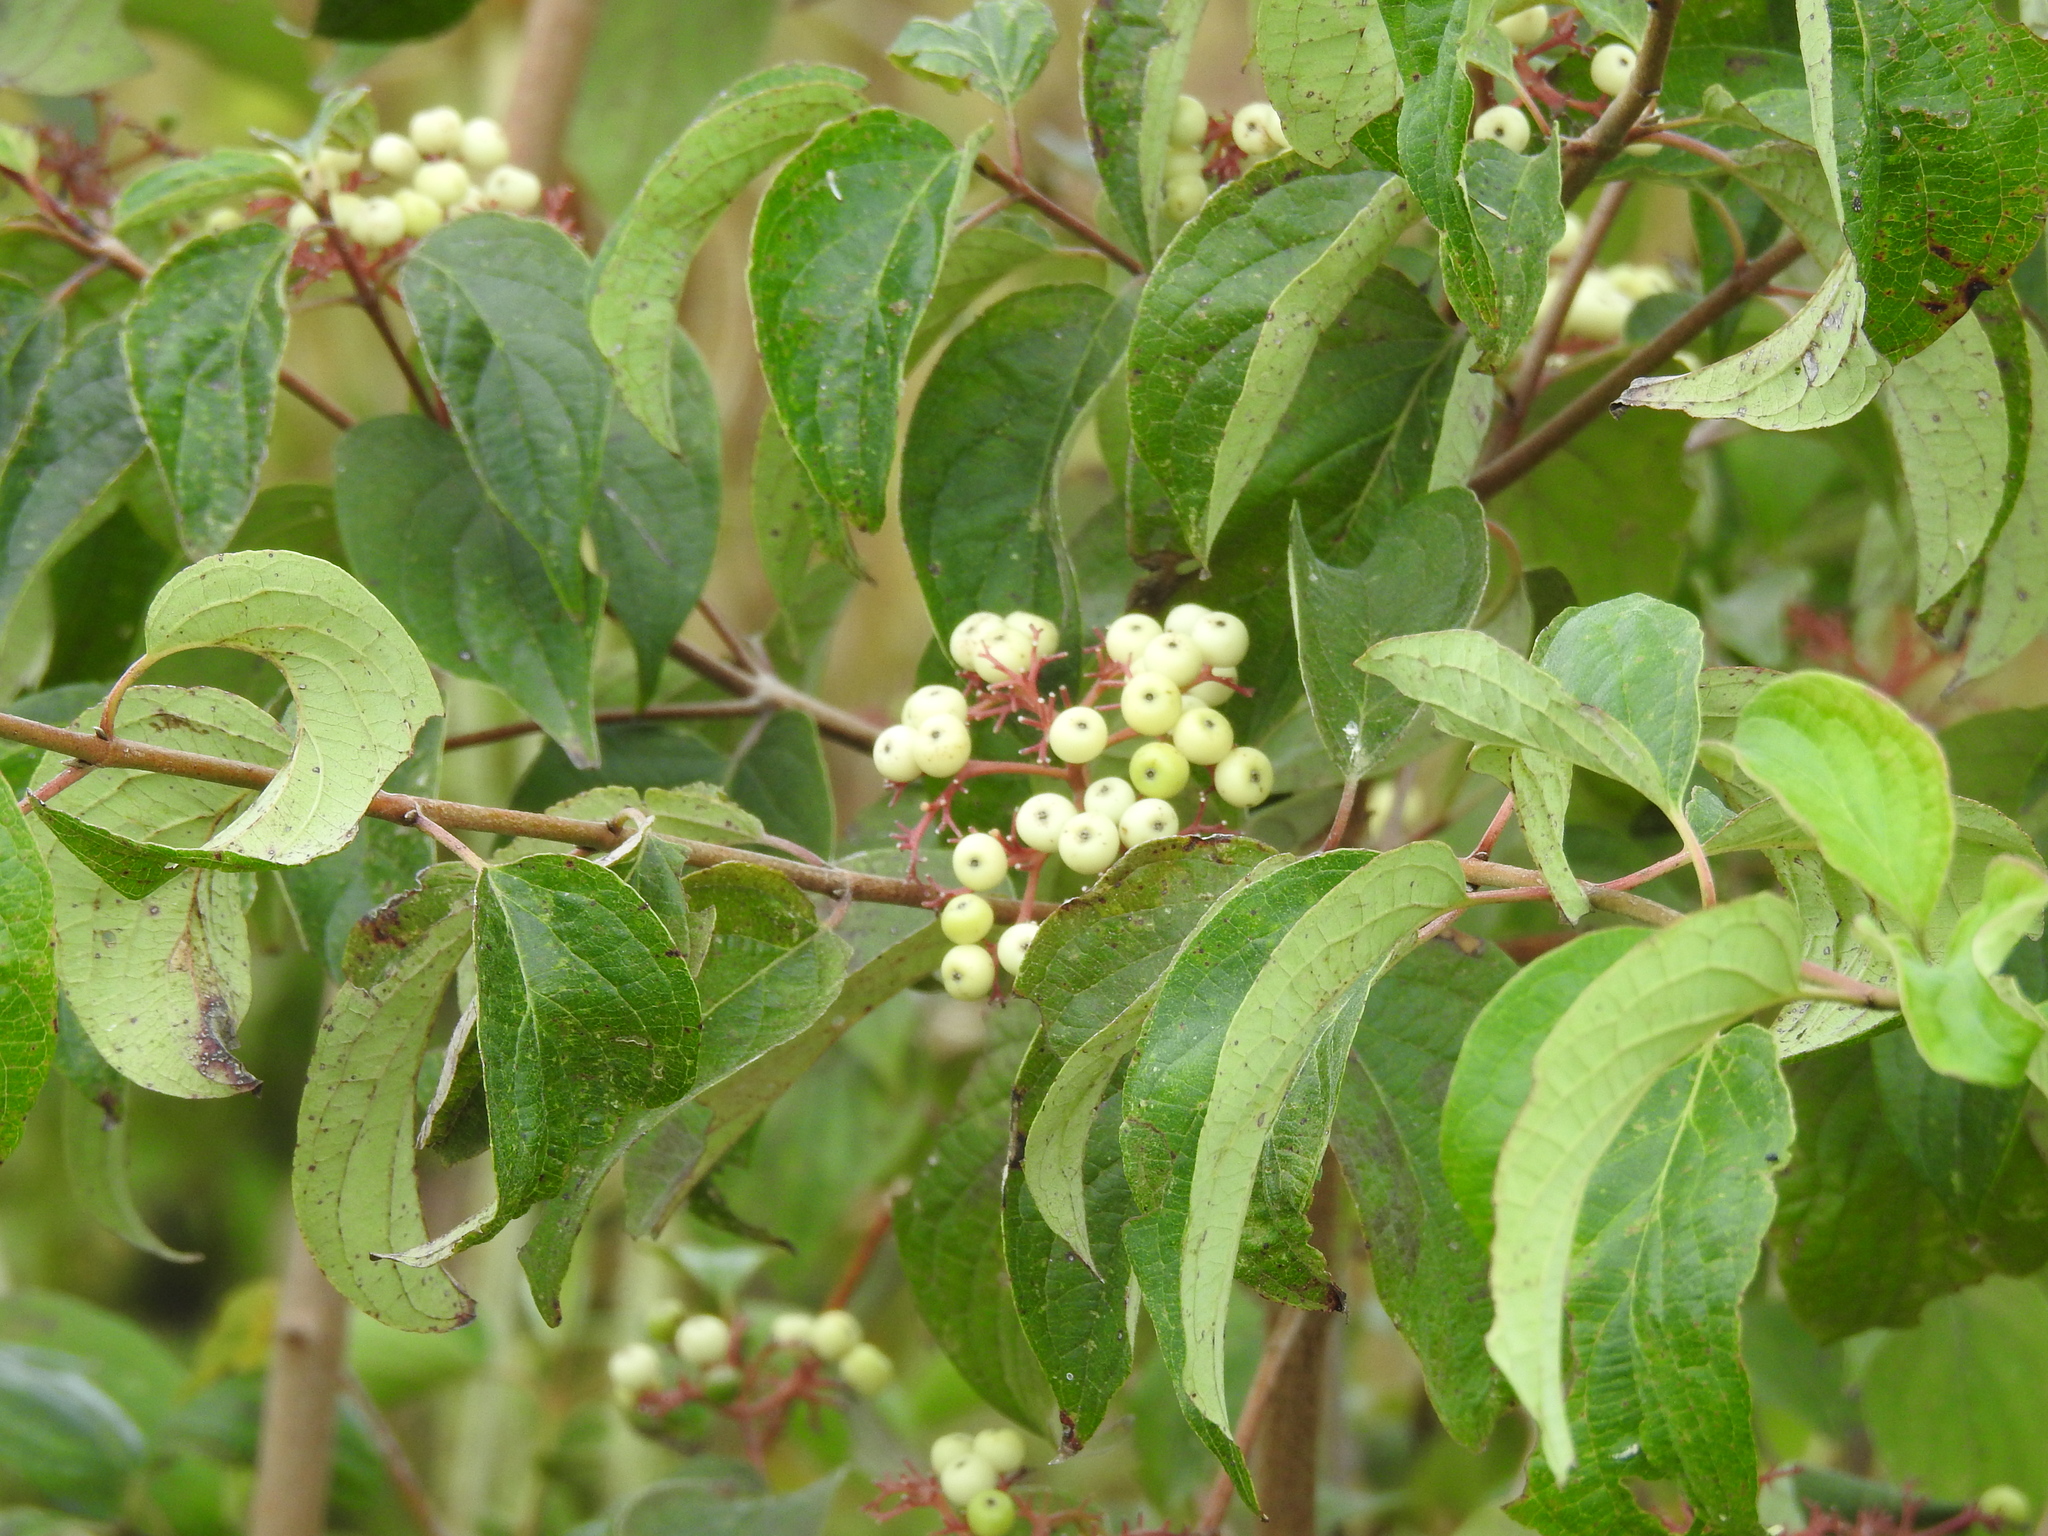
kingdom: Plantae
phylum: Tracheophyta
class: Magnoliopsida
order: Cornales
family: Cornaceae
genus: Cornus
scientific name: Cornus drummondii
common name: Rough-leaf dogwood
